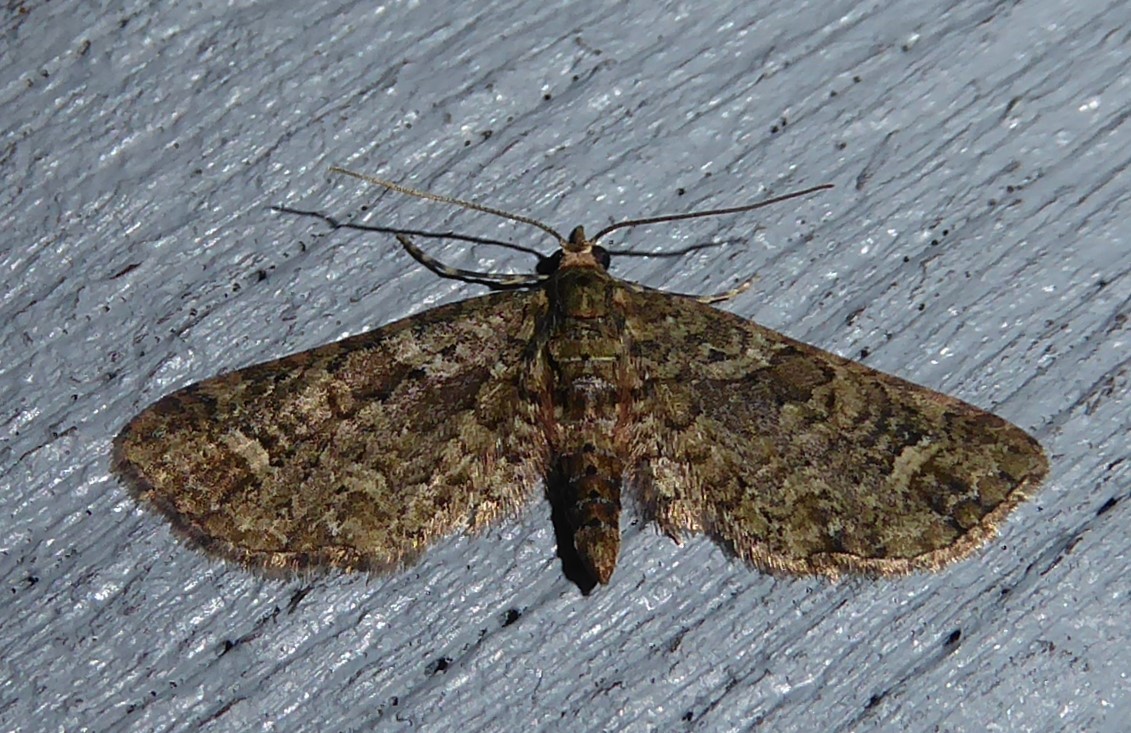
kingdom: Animalia
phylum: Arthropoda
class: Insecta
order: Lepidoptera
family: Geometridae
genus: Idaea
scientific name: Idaea mutanda
